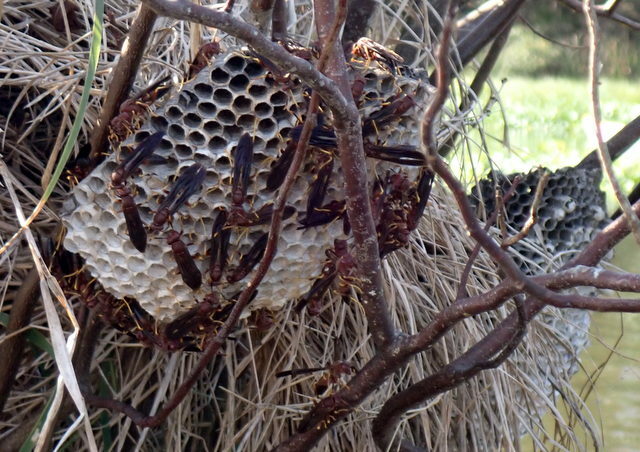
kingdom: Animalia
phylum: Arthropoda
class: Insecta
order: Hymenoptera
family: Eumenidae
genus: Polistes
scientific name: Polistes annularis
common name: Ringed paper wasp
